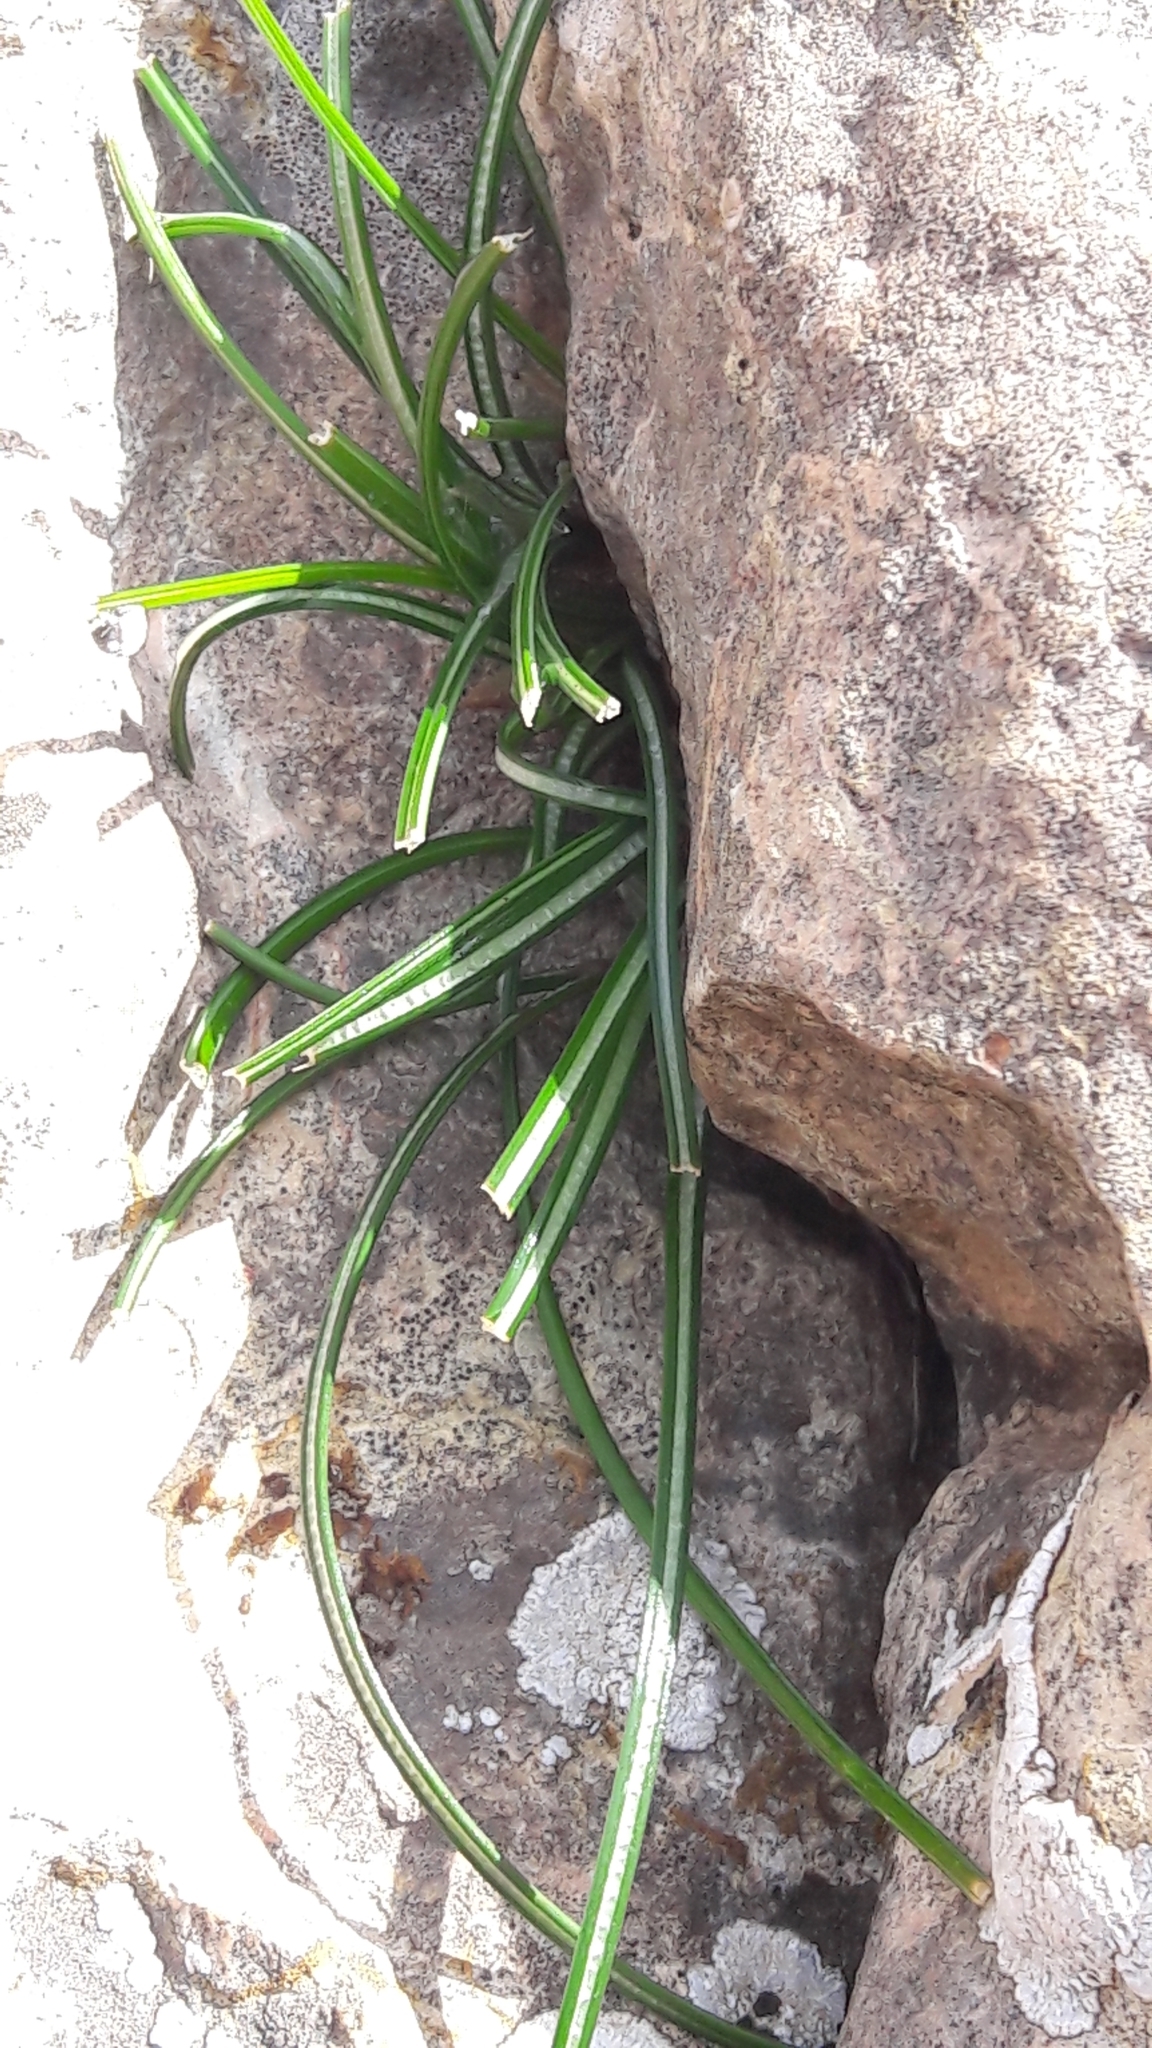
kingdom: Plantae
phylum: Tracheophyta
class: Liliopsida
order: Asparagales
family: Amaryllidaceae
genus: Lapiedra
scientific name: Lapiedra martinezii
